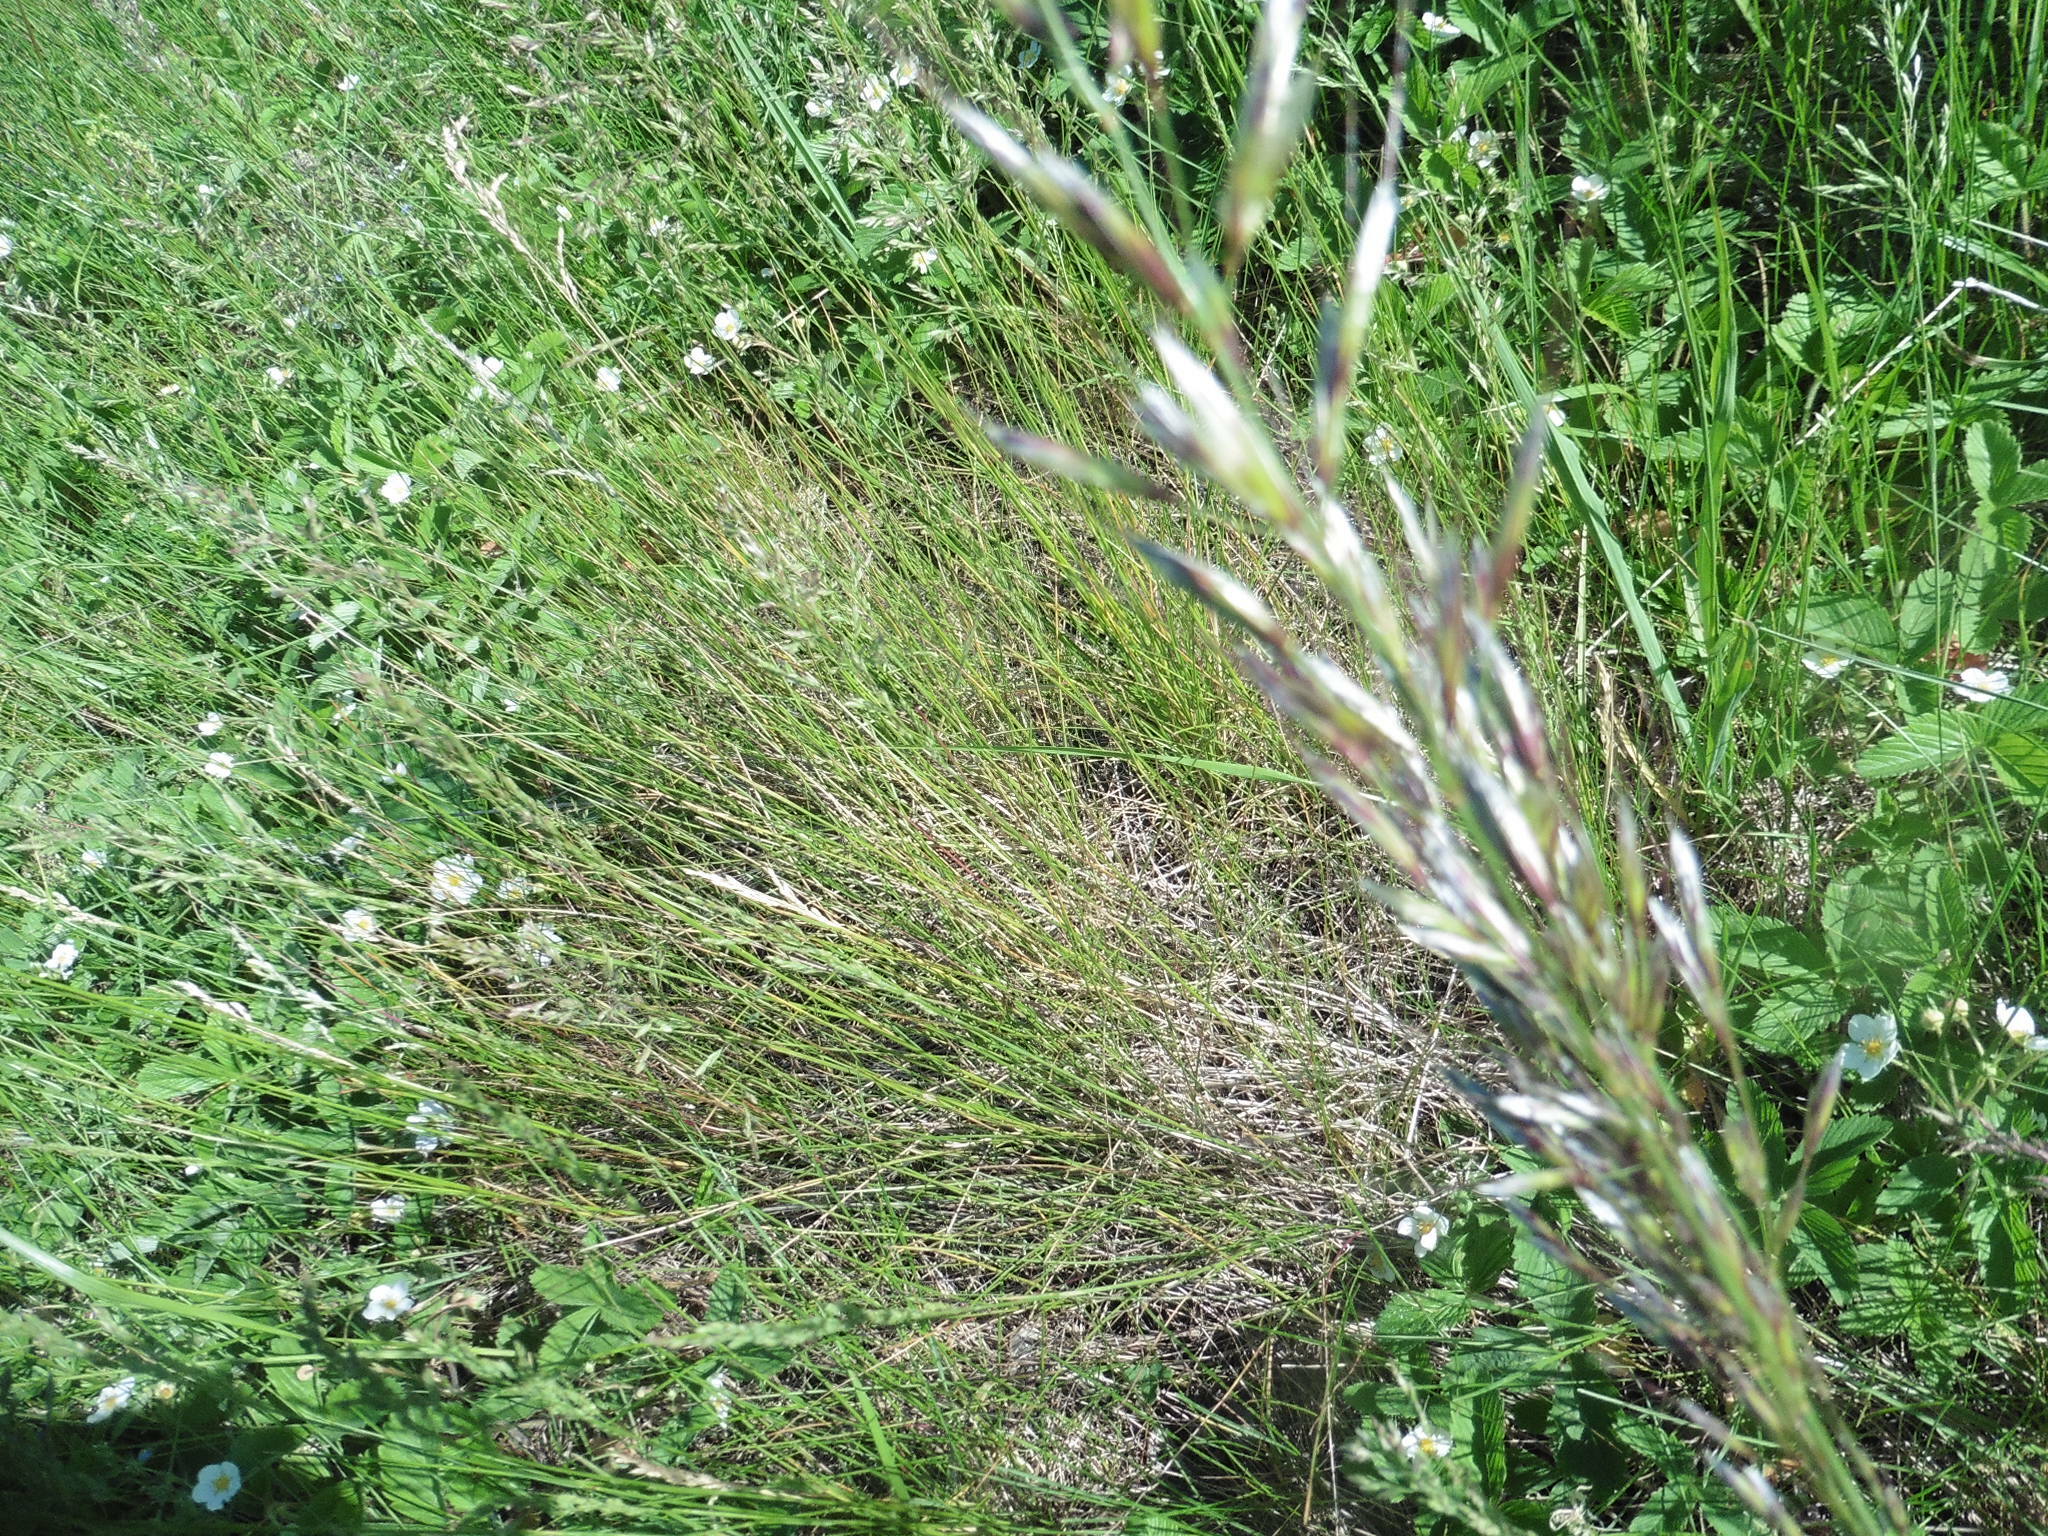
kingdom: Plantae
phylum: Tracheophyta
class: Liliopsida
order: Poales
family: Poaceae
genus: Avenula
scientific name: Avenula pubescens
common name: Downy alpine oatgrass
